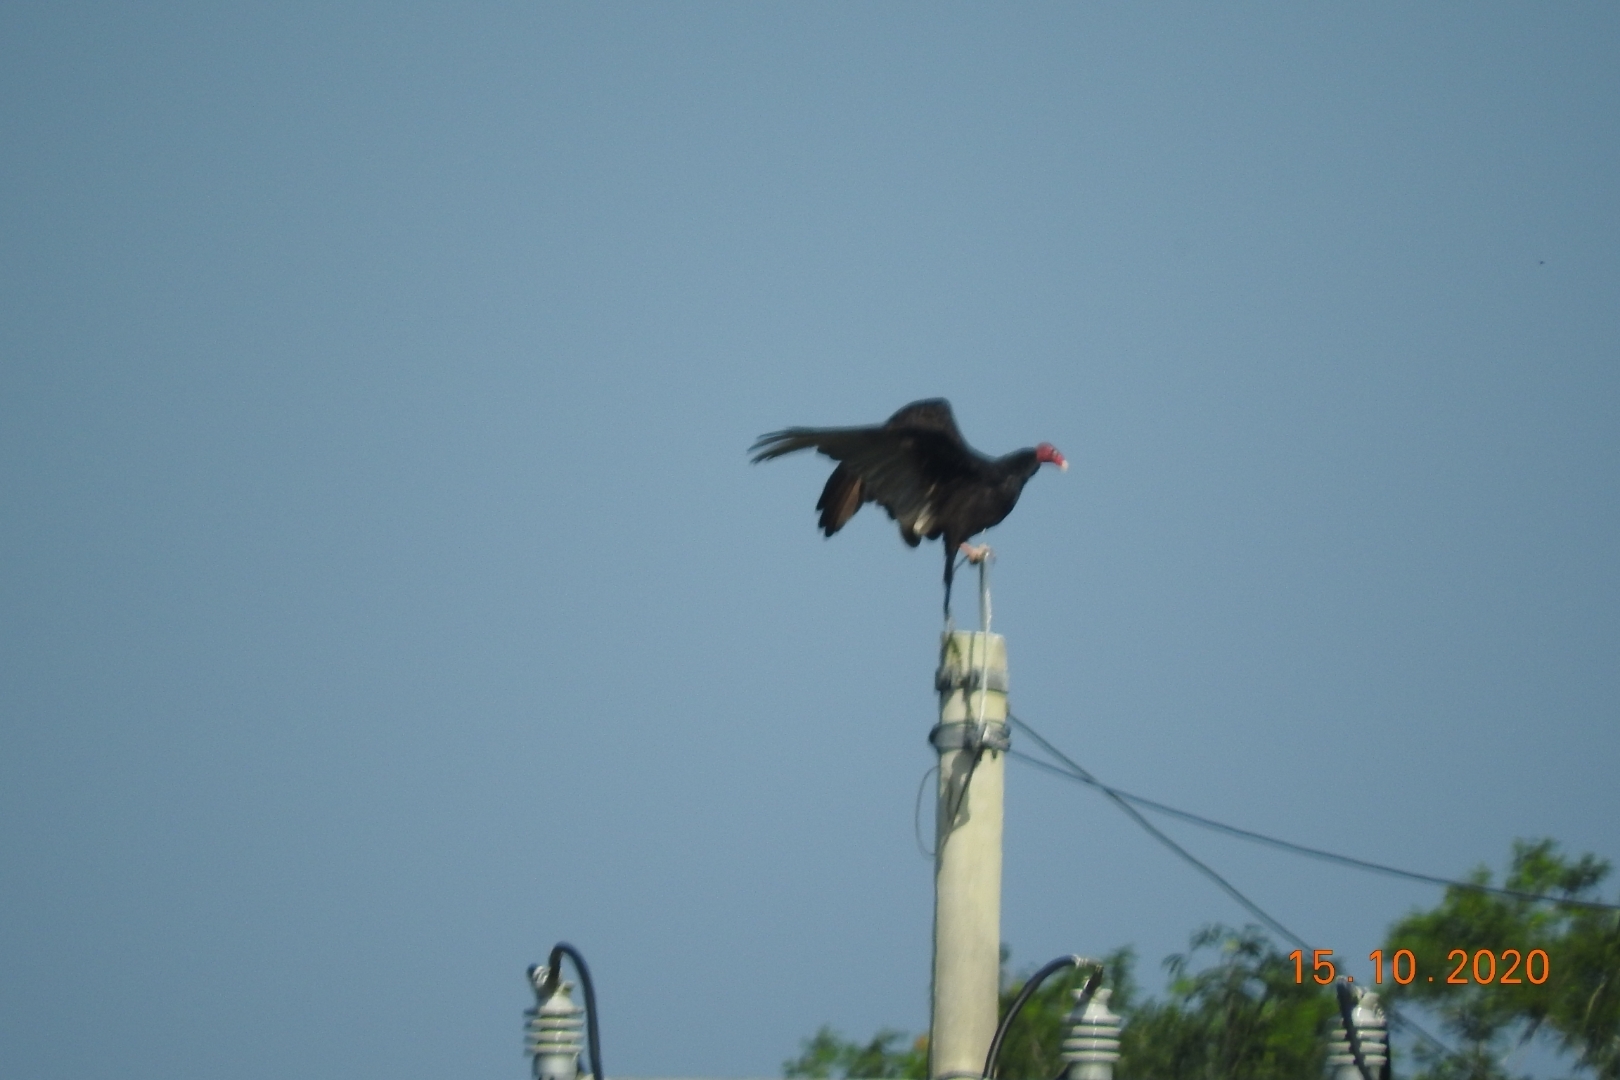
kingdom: Animalia
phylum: Chordata
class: Aves
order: Accipitriformes
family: Cathartidae
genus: Cathartes
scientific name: Cathartes aura
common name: Turkey vulture
